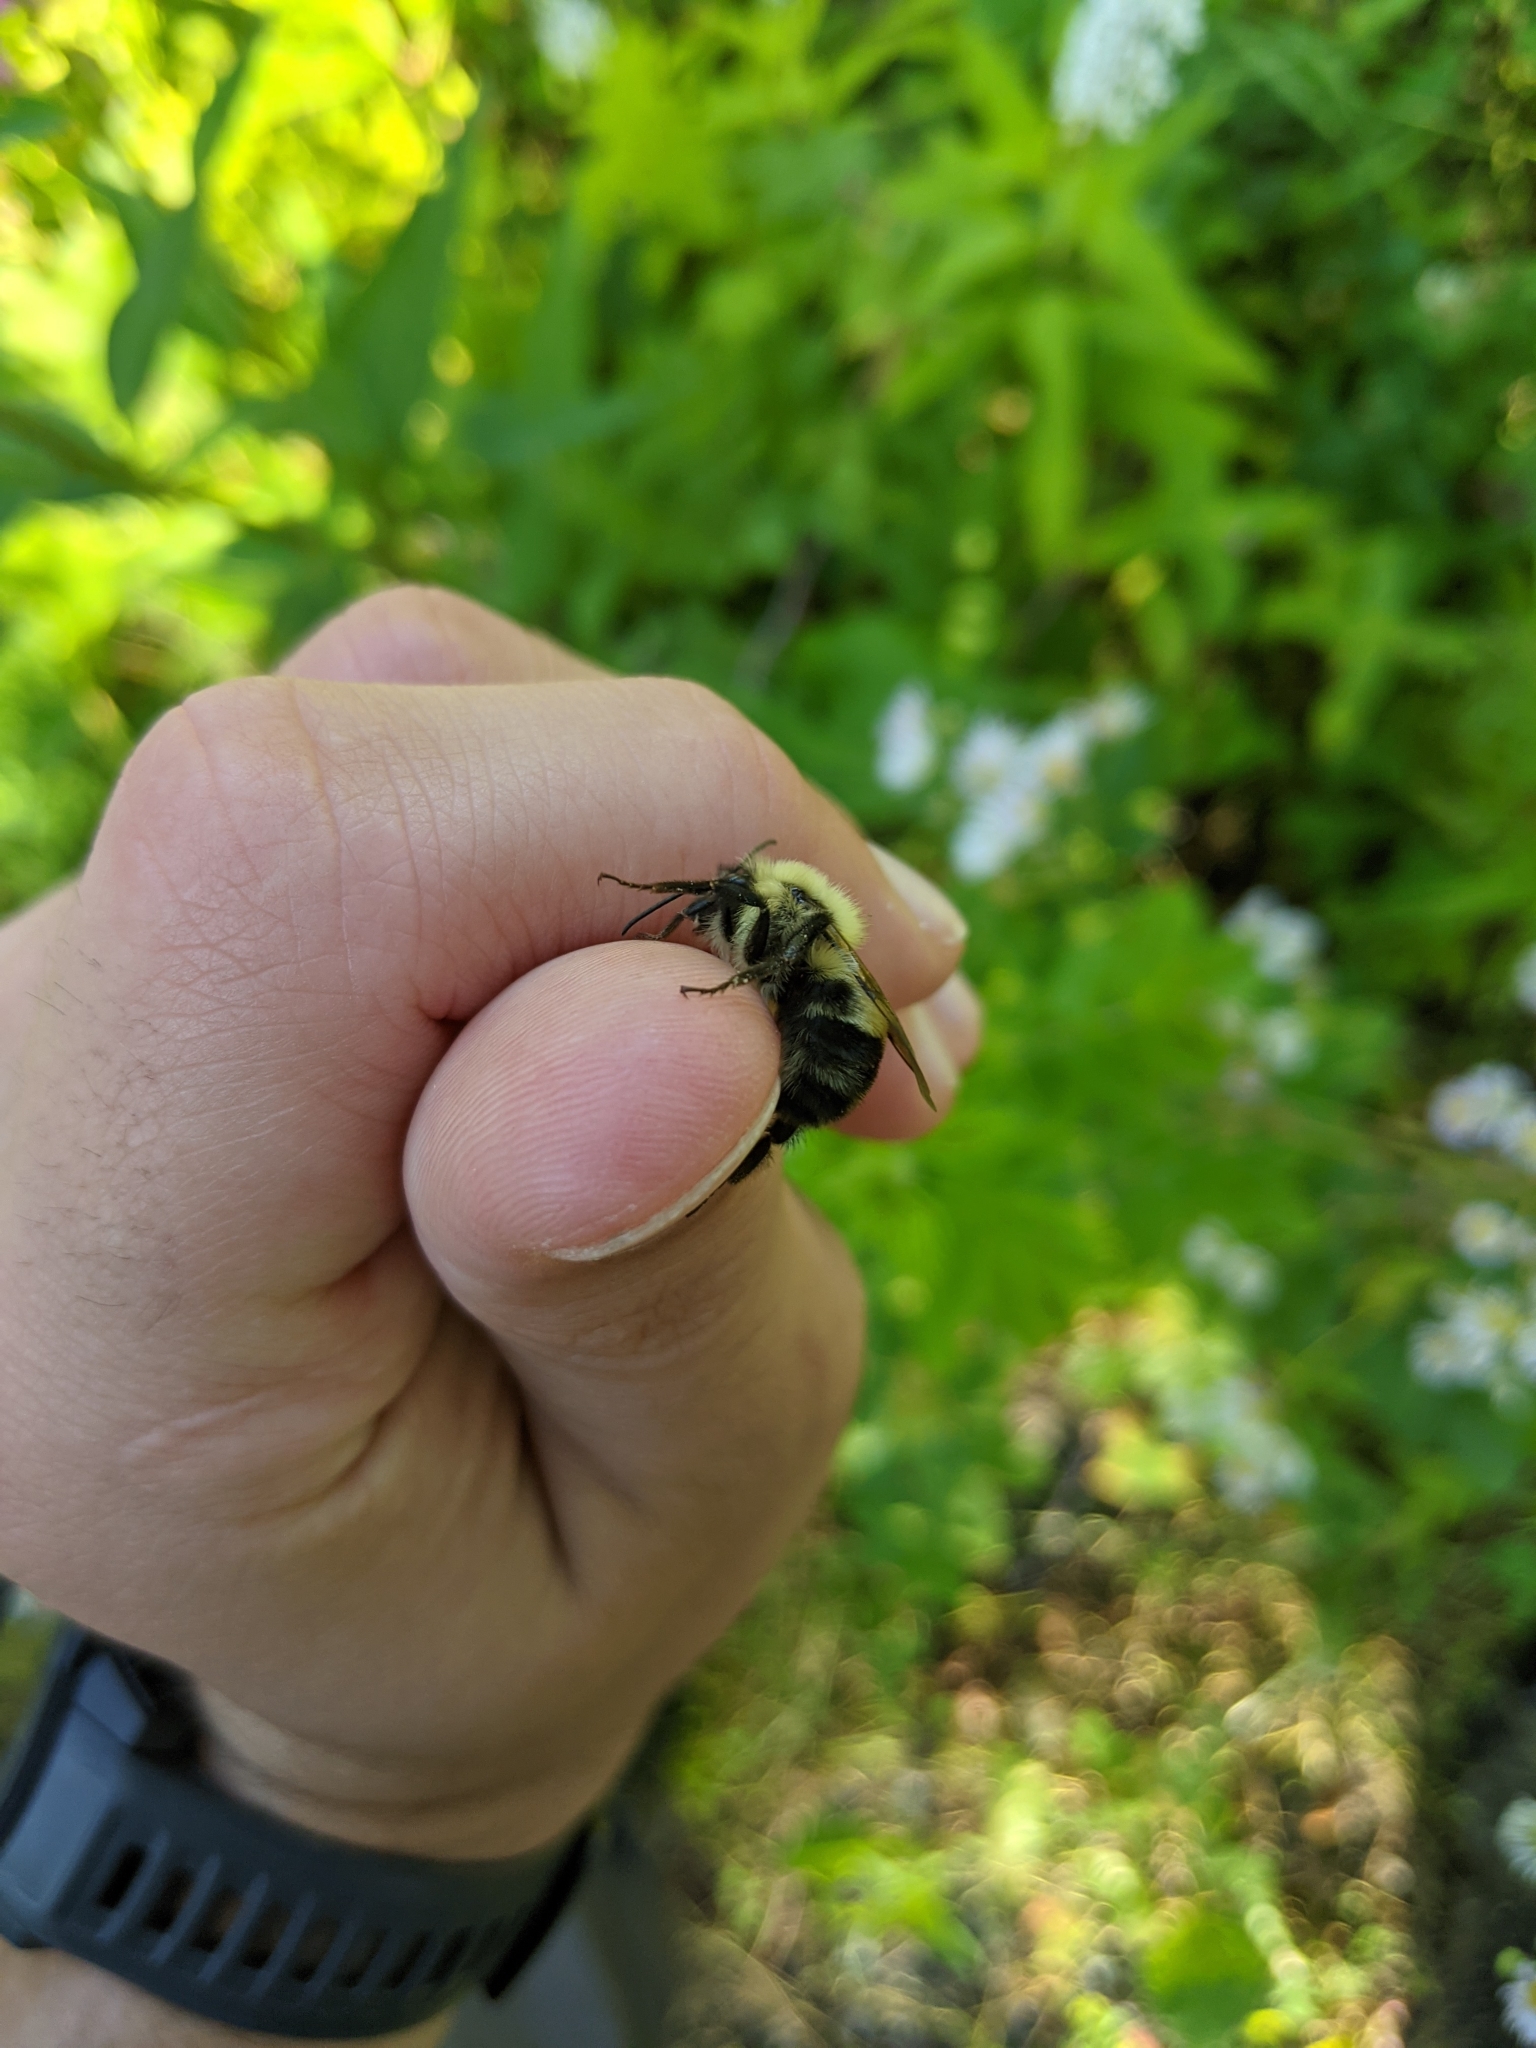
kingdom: Animalia
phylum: Arthropoda
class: Insecta
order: Hymenoptera
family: Apidae
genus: Bombus
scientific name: Bombus bimaculatus
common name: Two-spotted bumble bee
